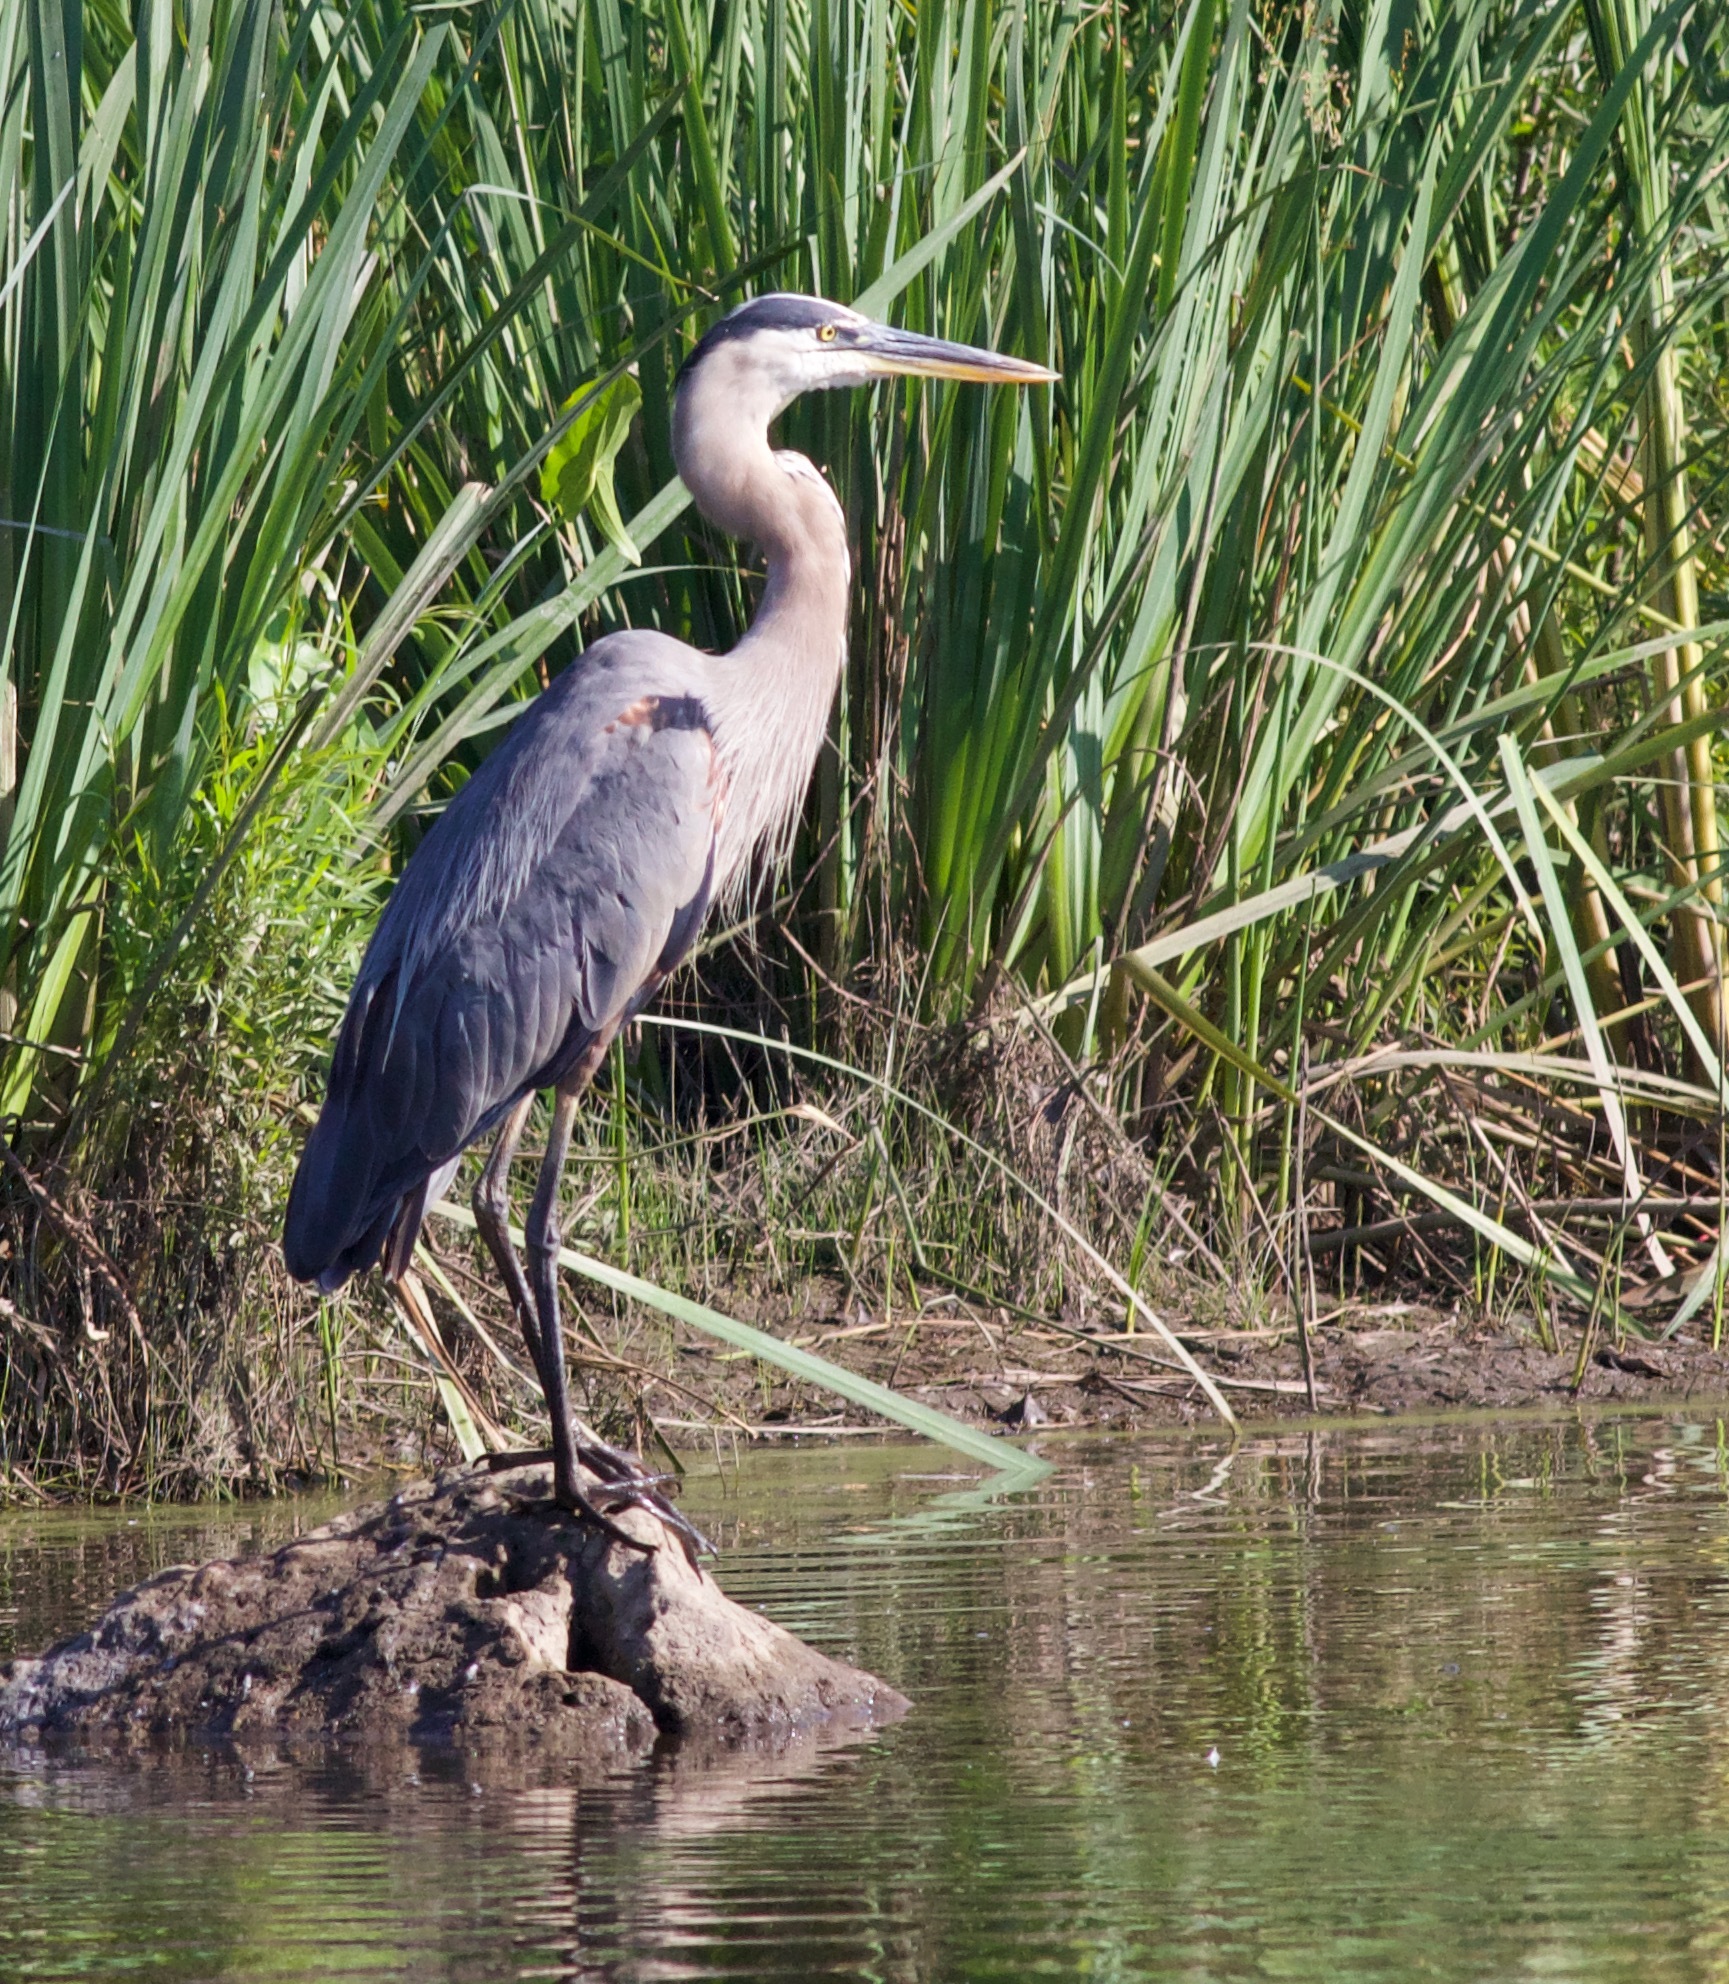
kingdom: Animalia
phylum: Chordata
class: Aves
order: Pelecaniformes
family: Ardeidae
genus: Ardea
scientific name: Ardea herodias
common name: Great blue heron
